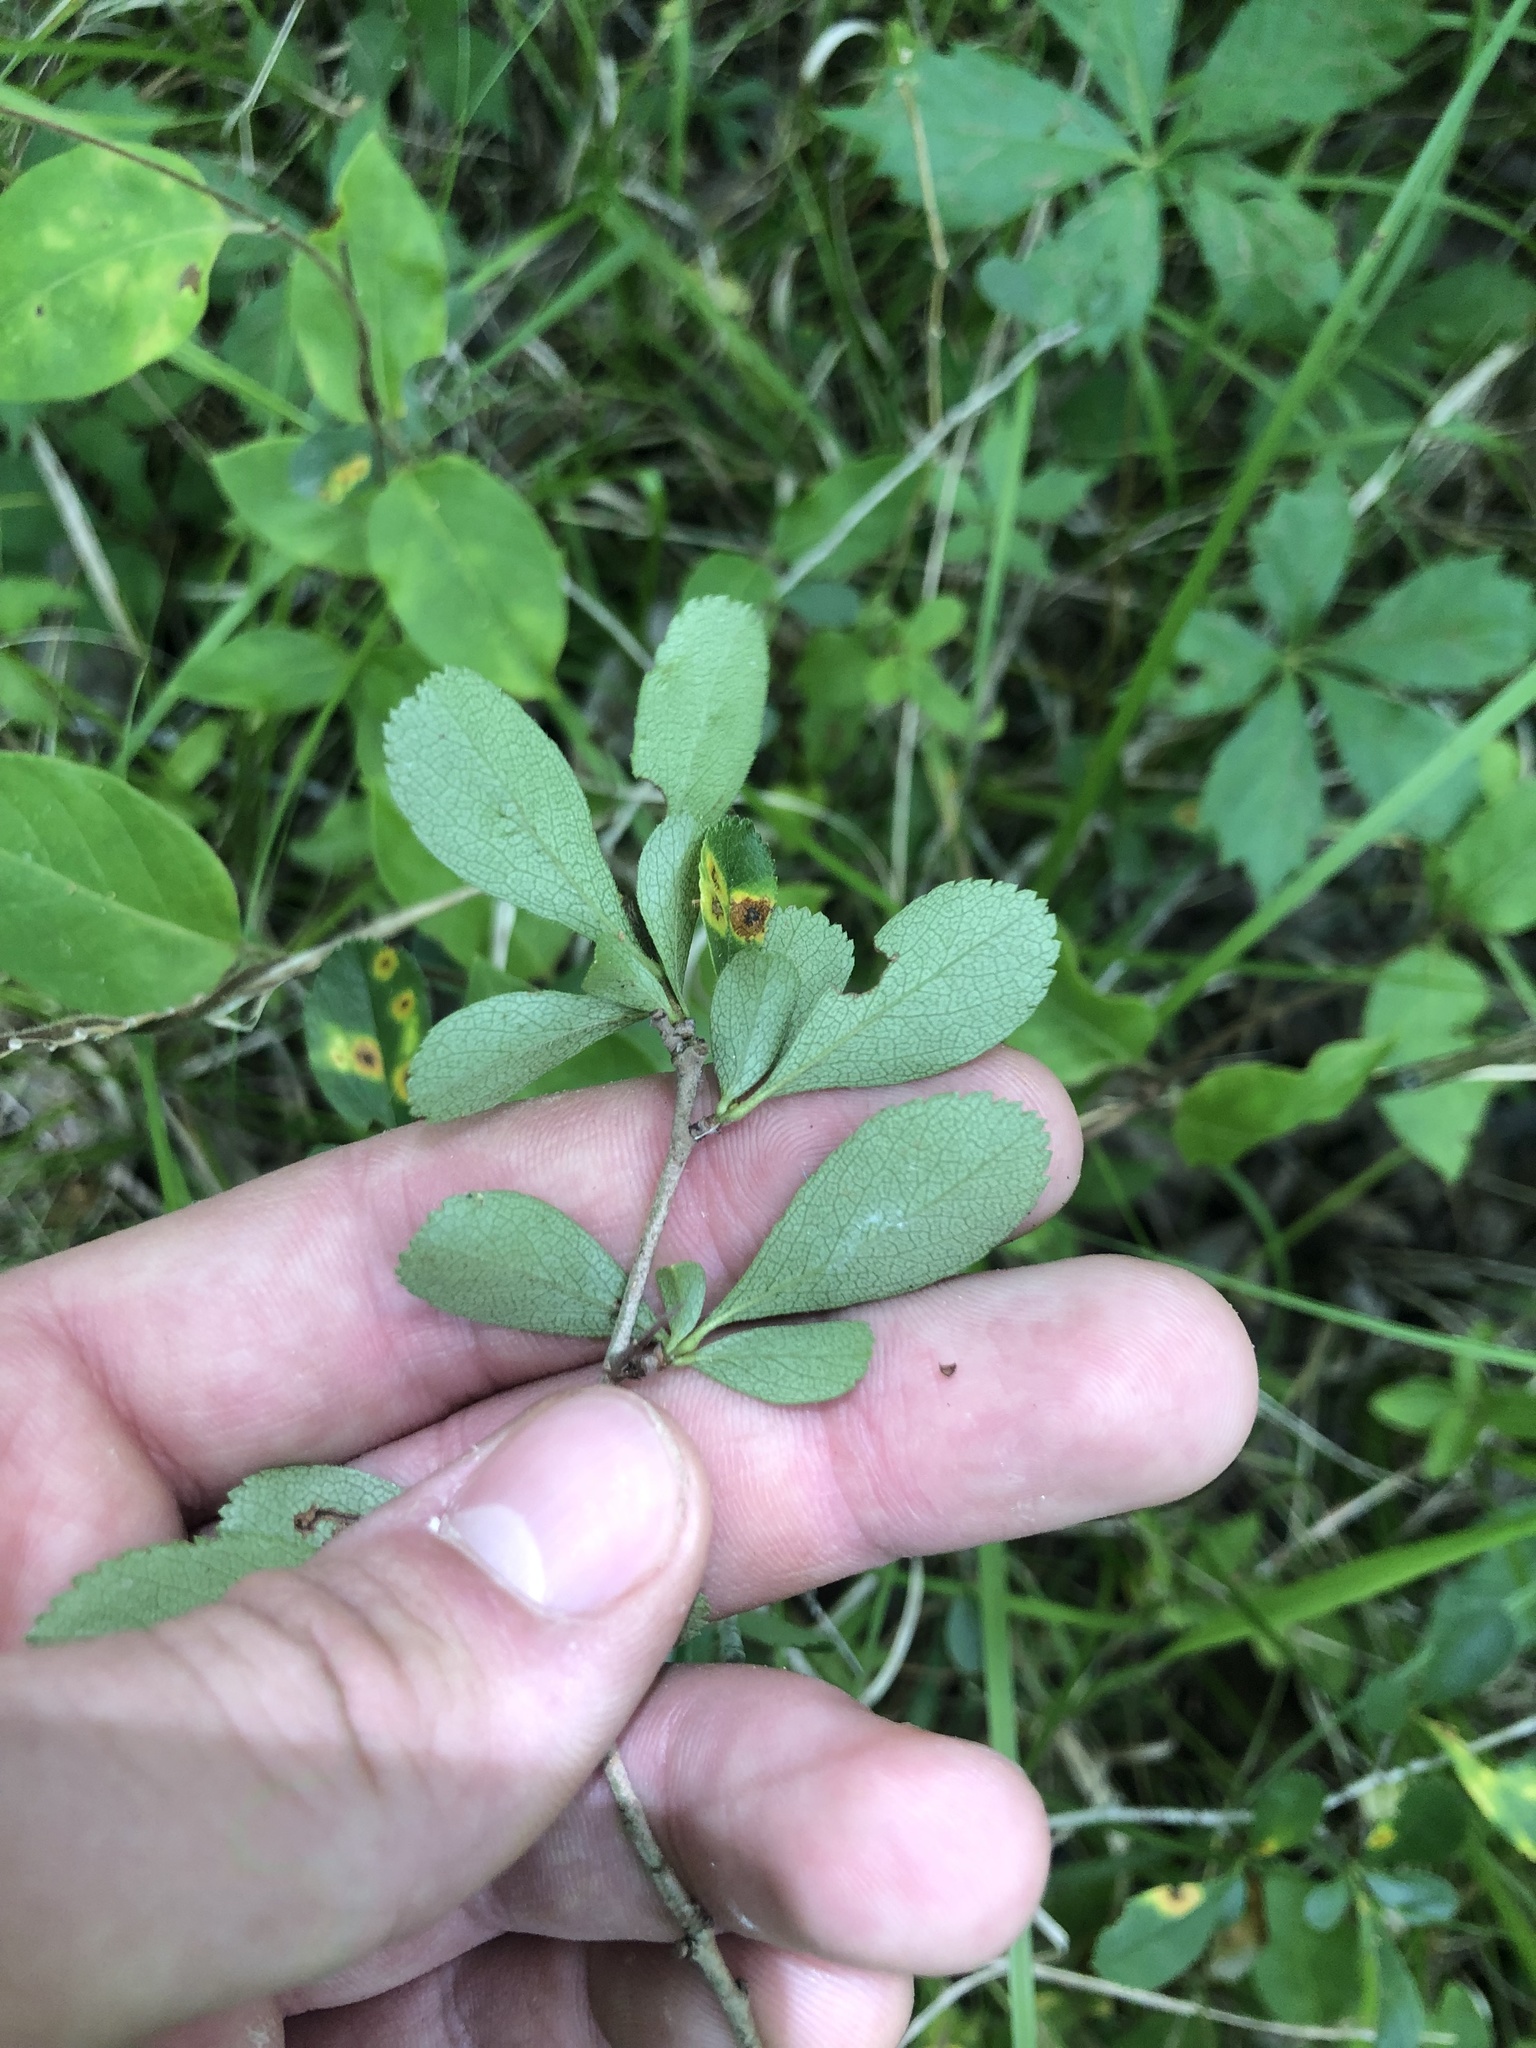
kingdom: Plantae
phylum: Tracheophyta
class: Magnoliopsida
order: Rosales
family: Rosaceae
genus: Crataegus
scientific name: Crataegus berberifolia
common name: Barberry hawthorn
